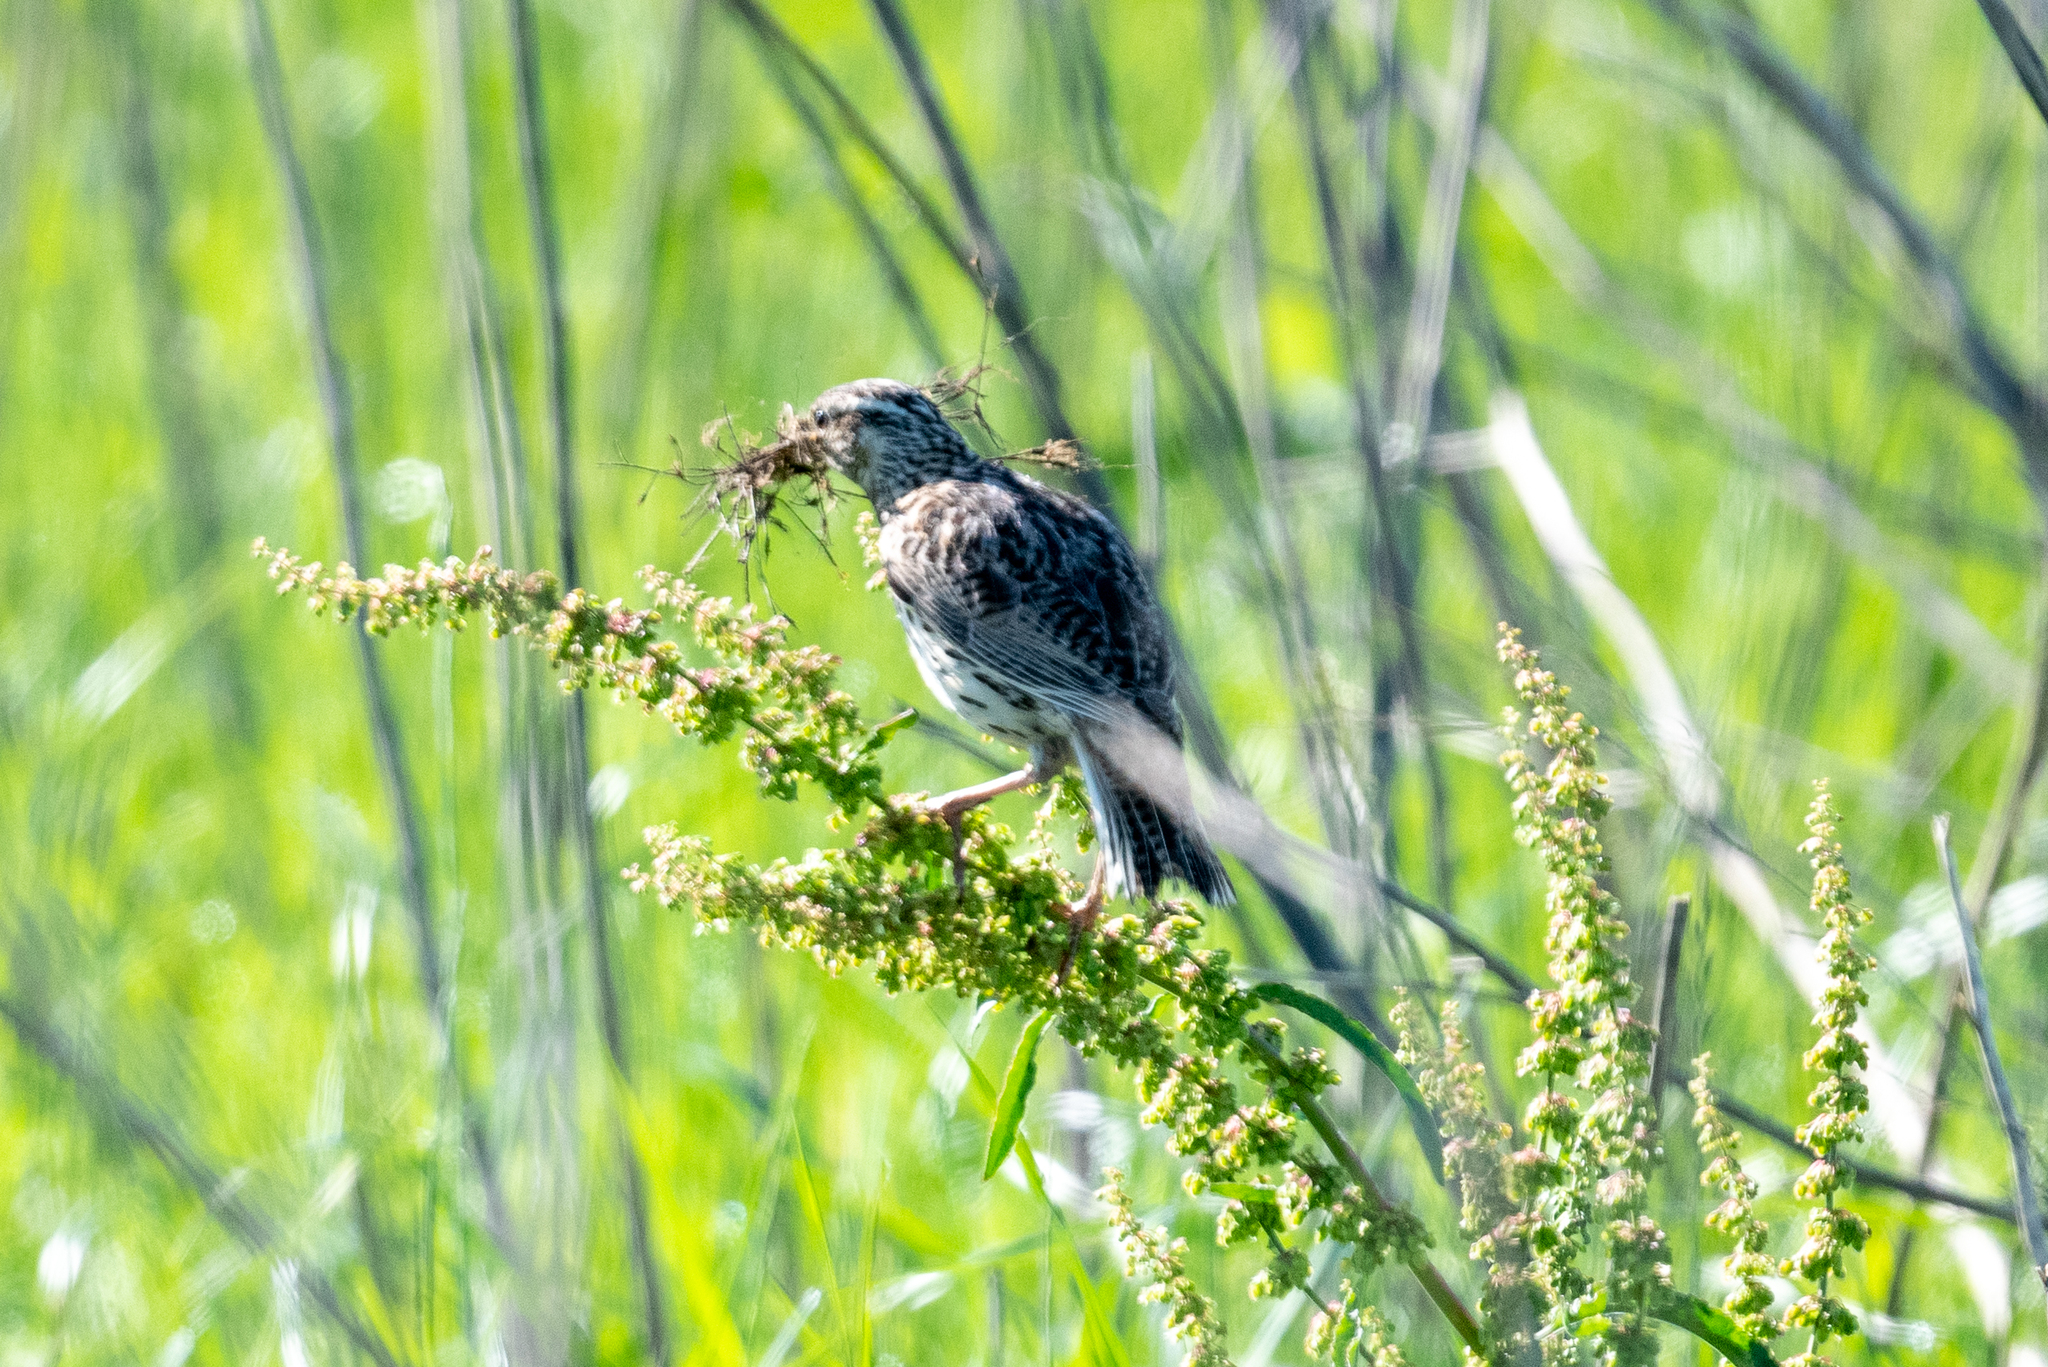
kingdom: Animalia
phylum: Chordata
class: Aves
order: Passeriformes
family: Icteridae
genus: Sturnella
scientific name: Sturnella neglecta
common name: Western meadowlark
